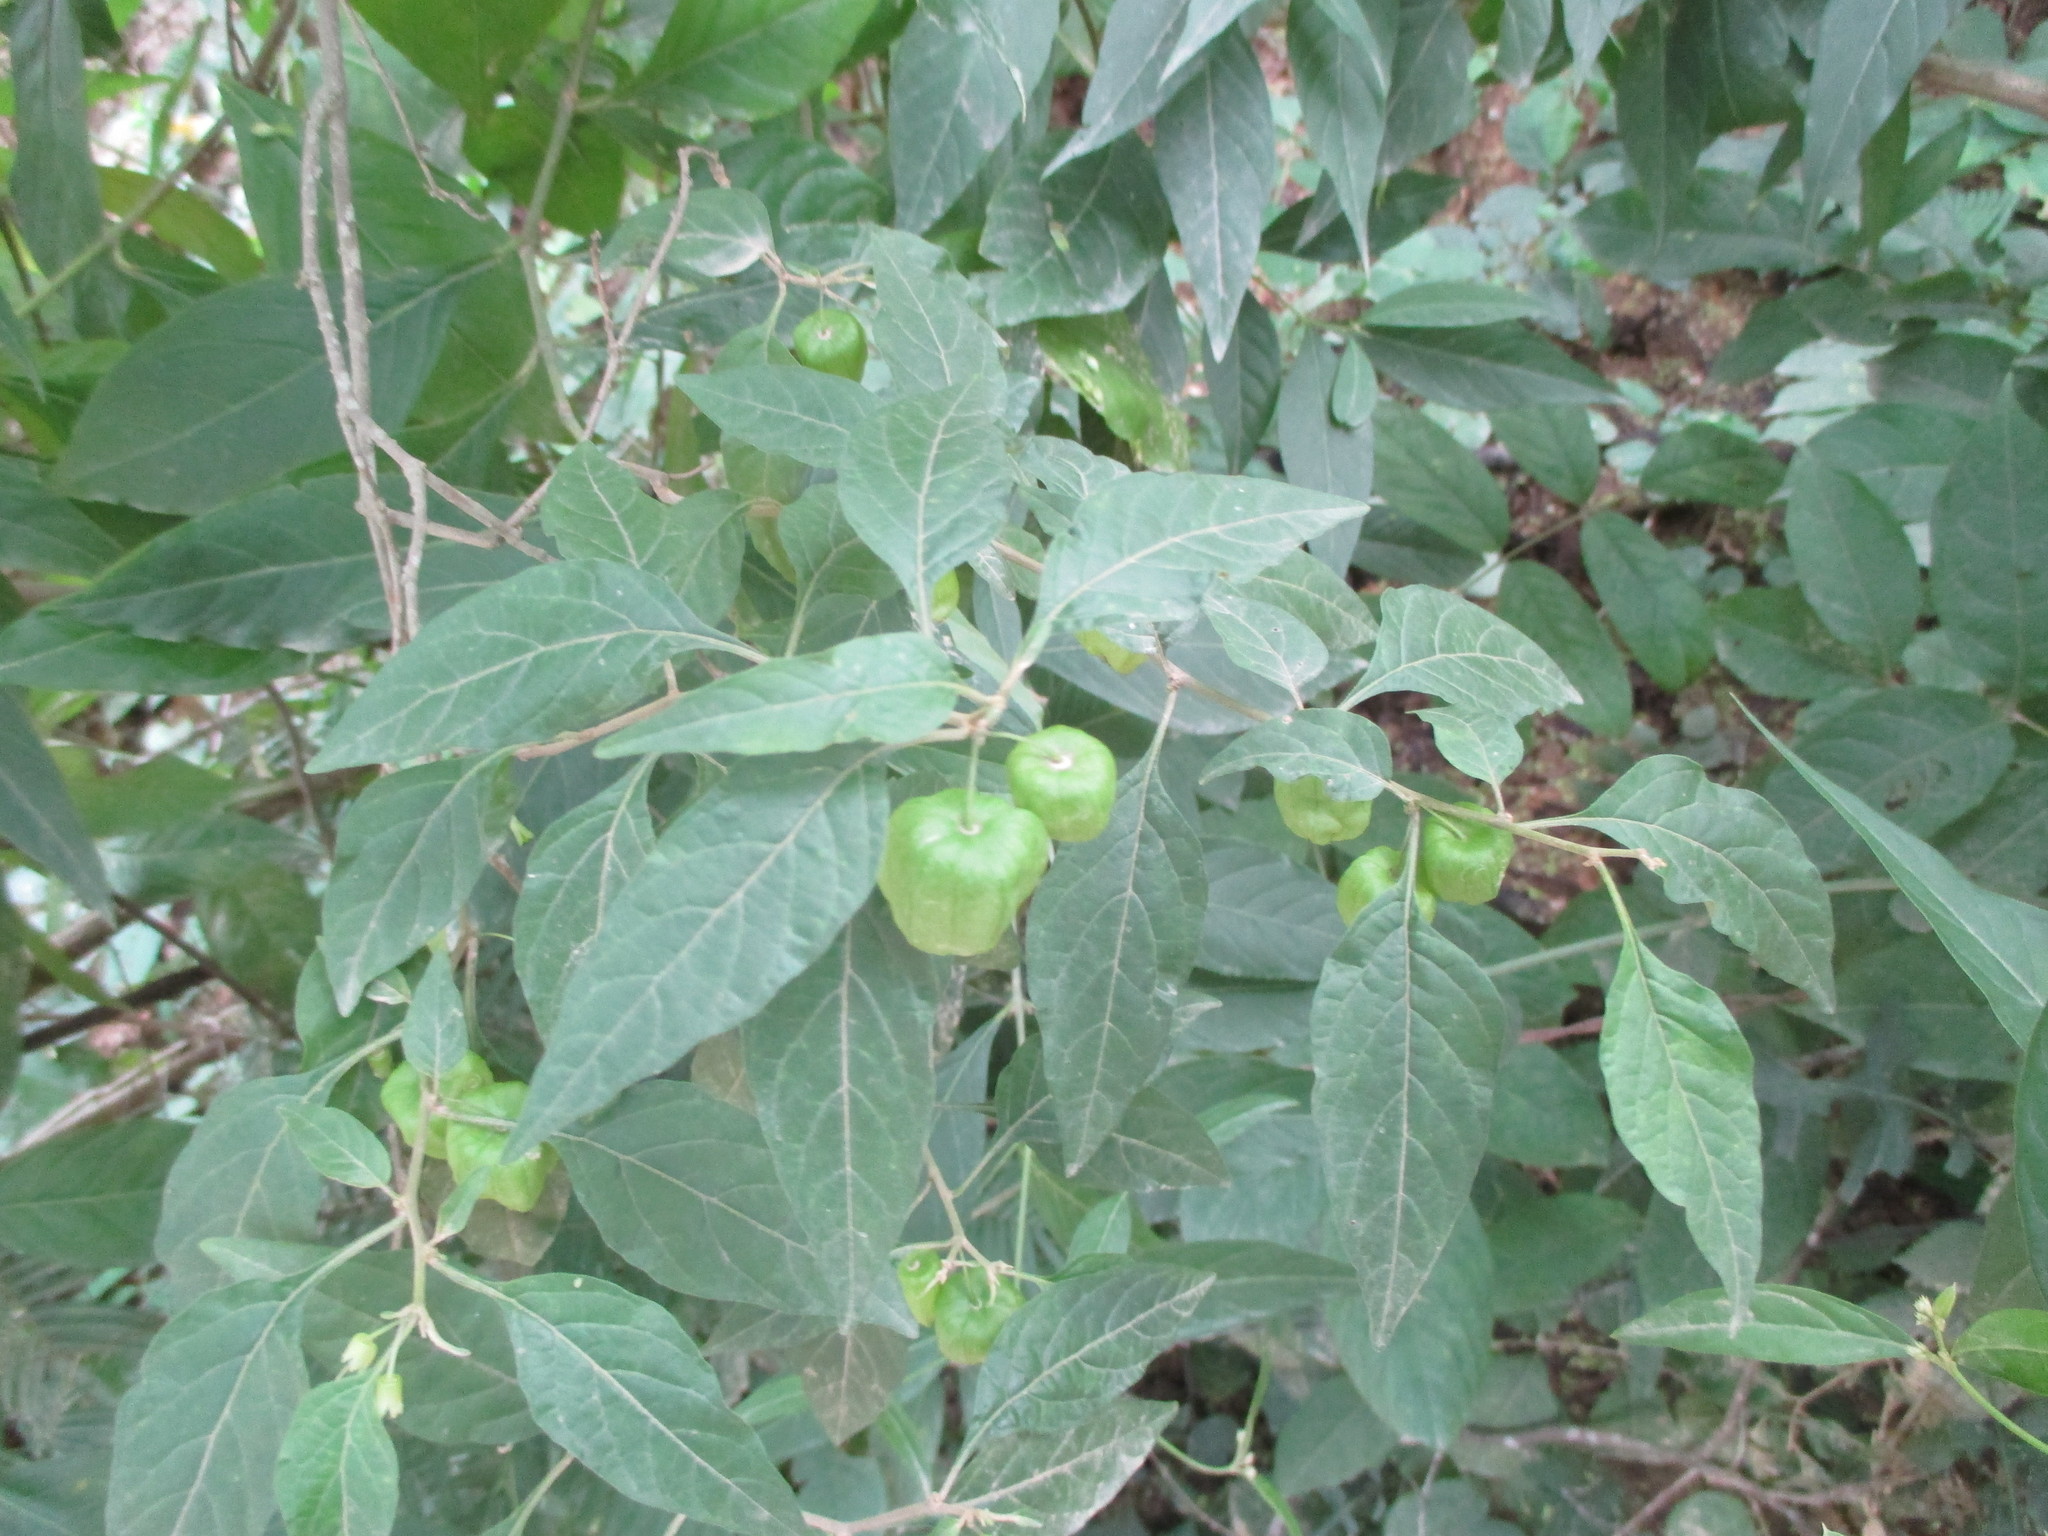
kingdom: Plantae
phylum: Tracheophyta
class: Magnoliopsida
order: Solanales
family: Solanaceae
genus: Physalis
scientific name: Physalis campechiana
